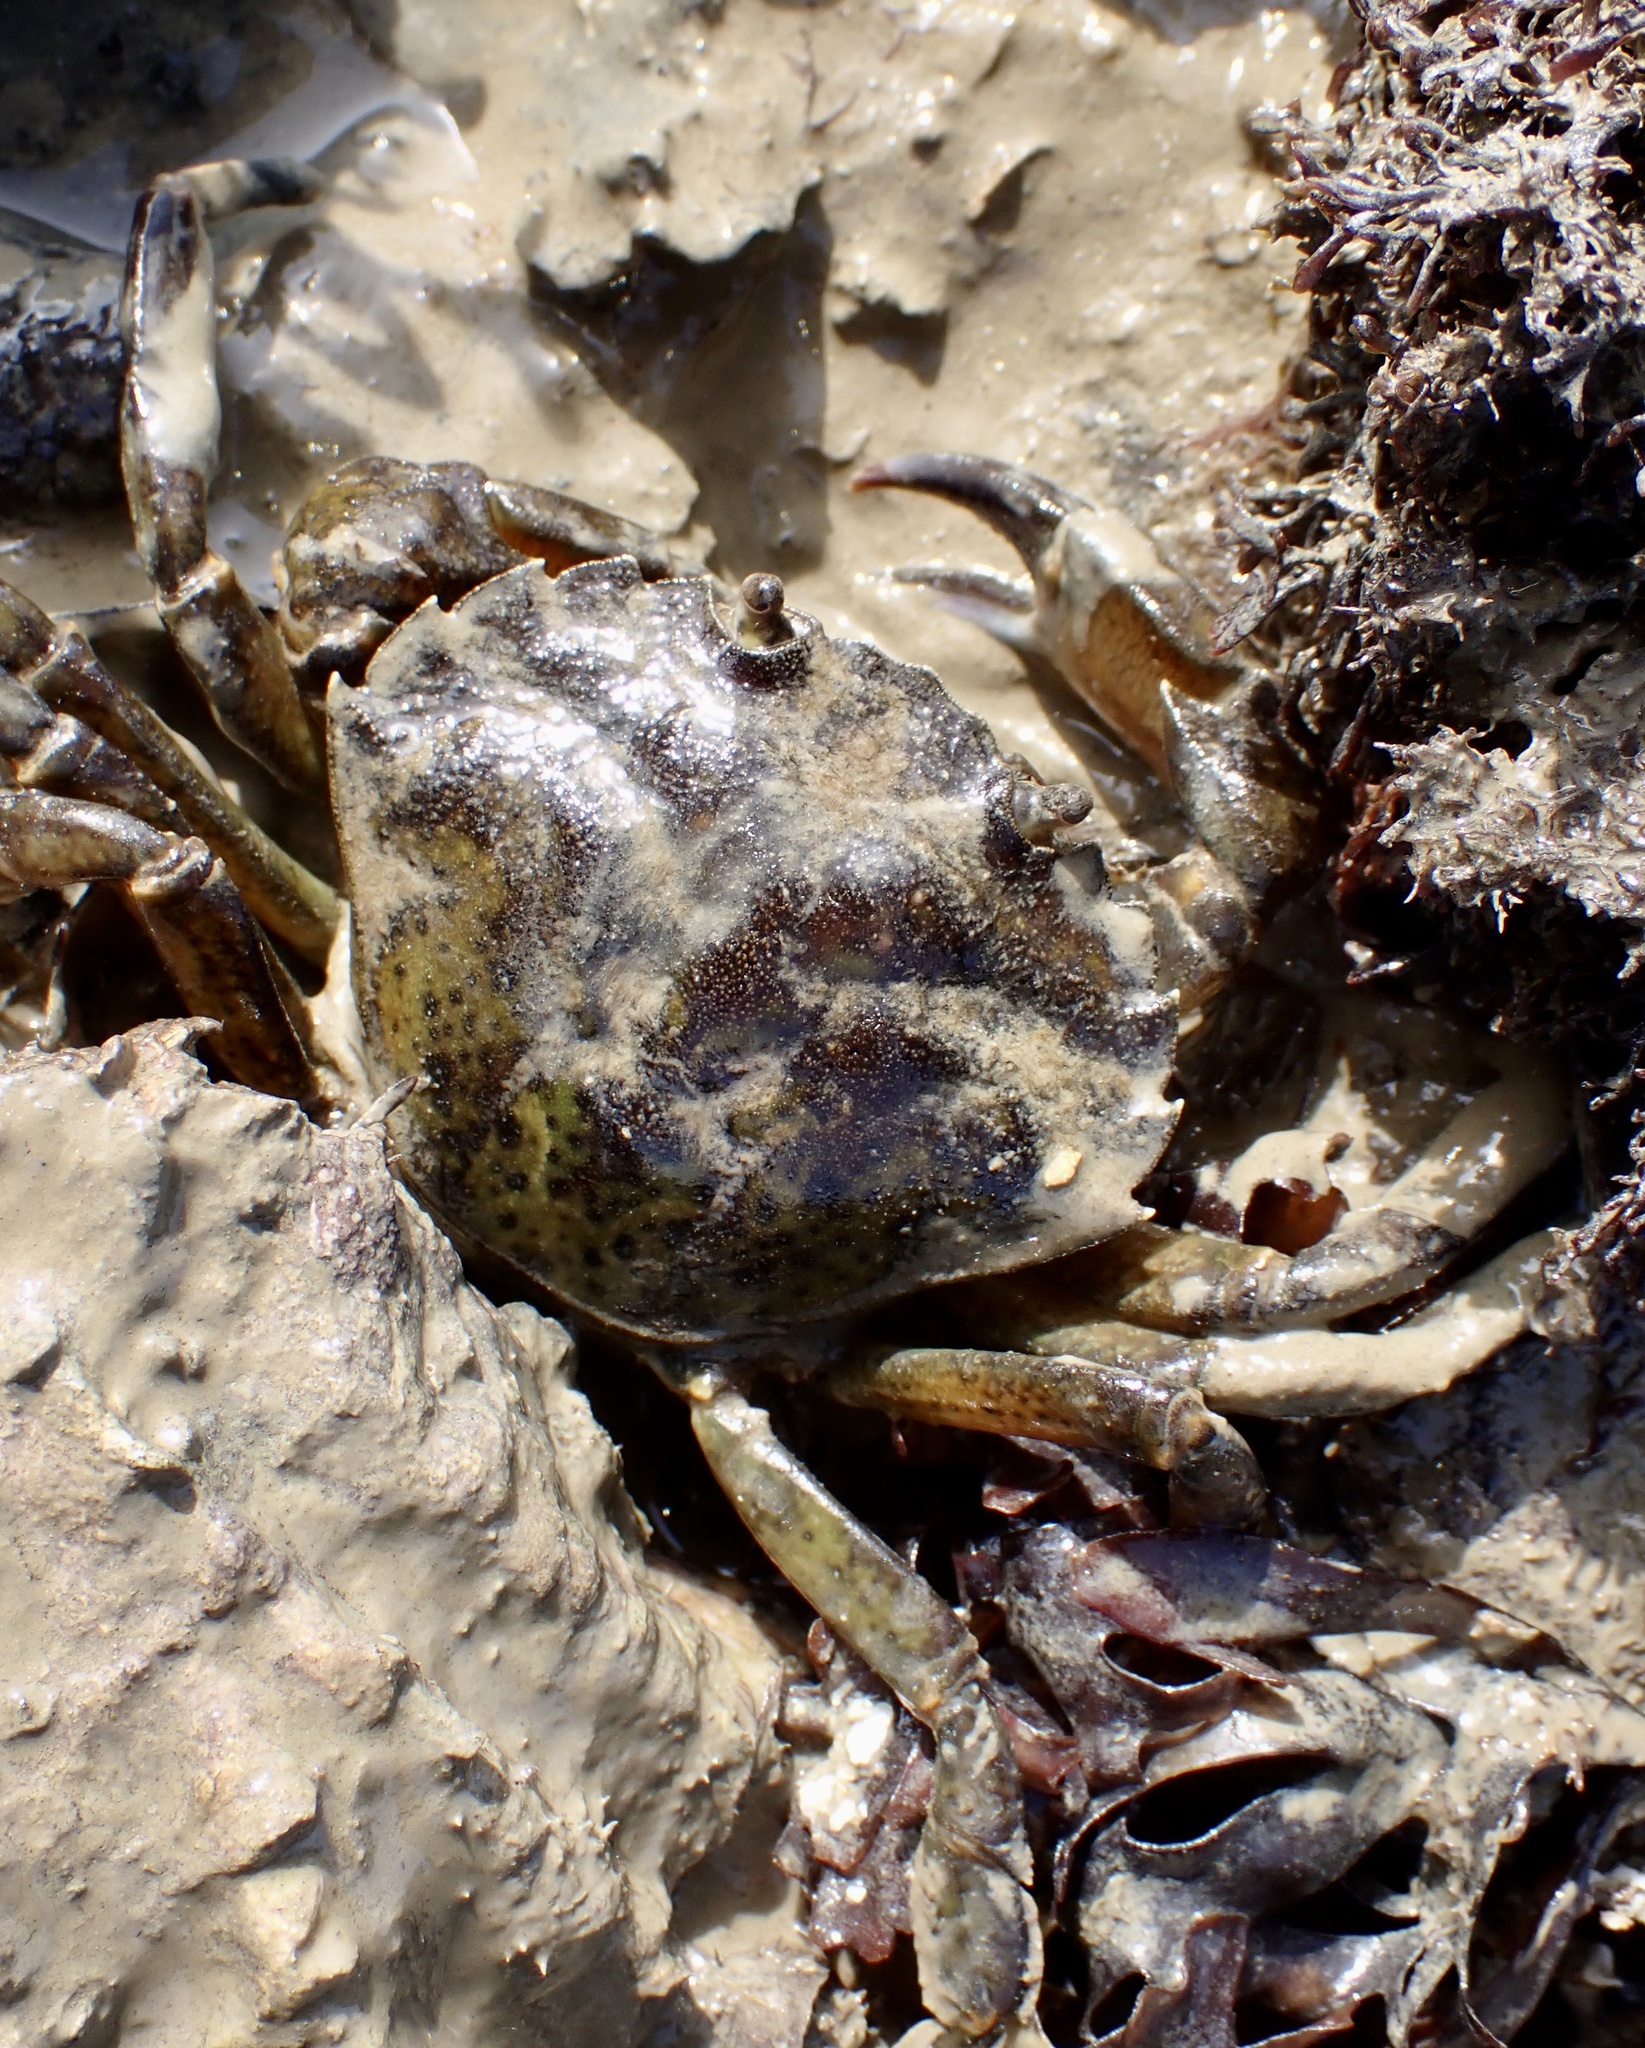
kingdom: Animalia
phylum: Arthropoda
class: Malacostraca
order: Decapoda
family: Carcinidae
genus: Carcinus
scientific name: Carcinus maenas
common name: European green crab
